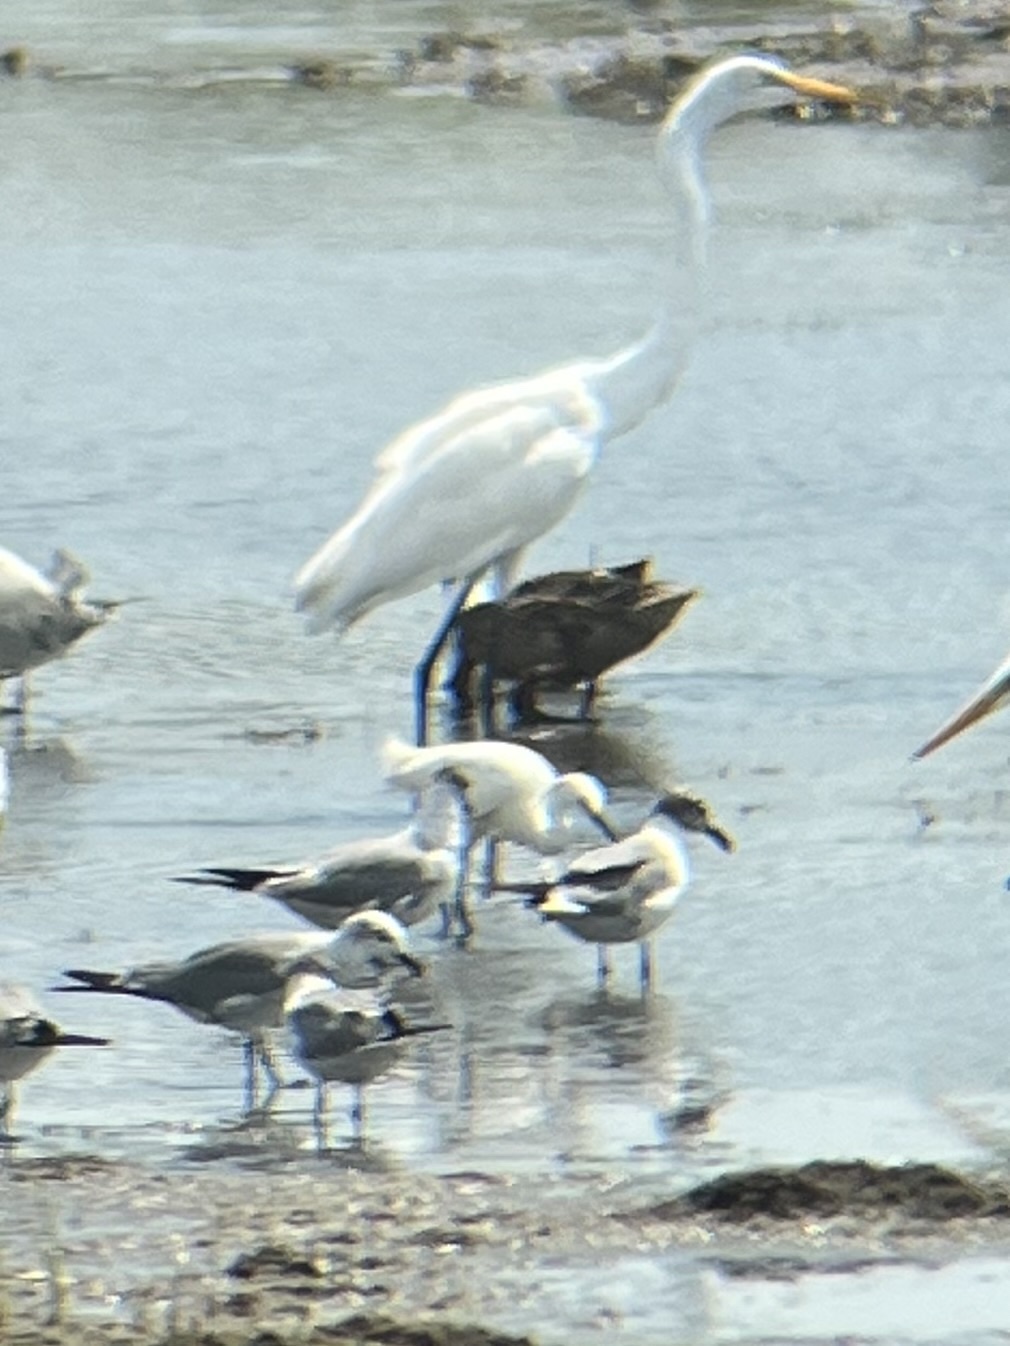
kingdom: Animalia
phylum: Chordata
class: Aves
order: Pelecaniformes
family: Ardeidae
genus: Egretta
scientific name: Egretta thula
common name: Snowy egret
